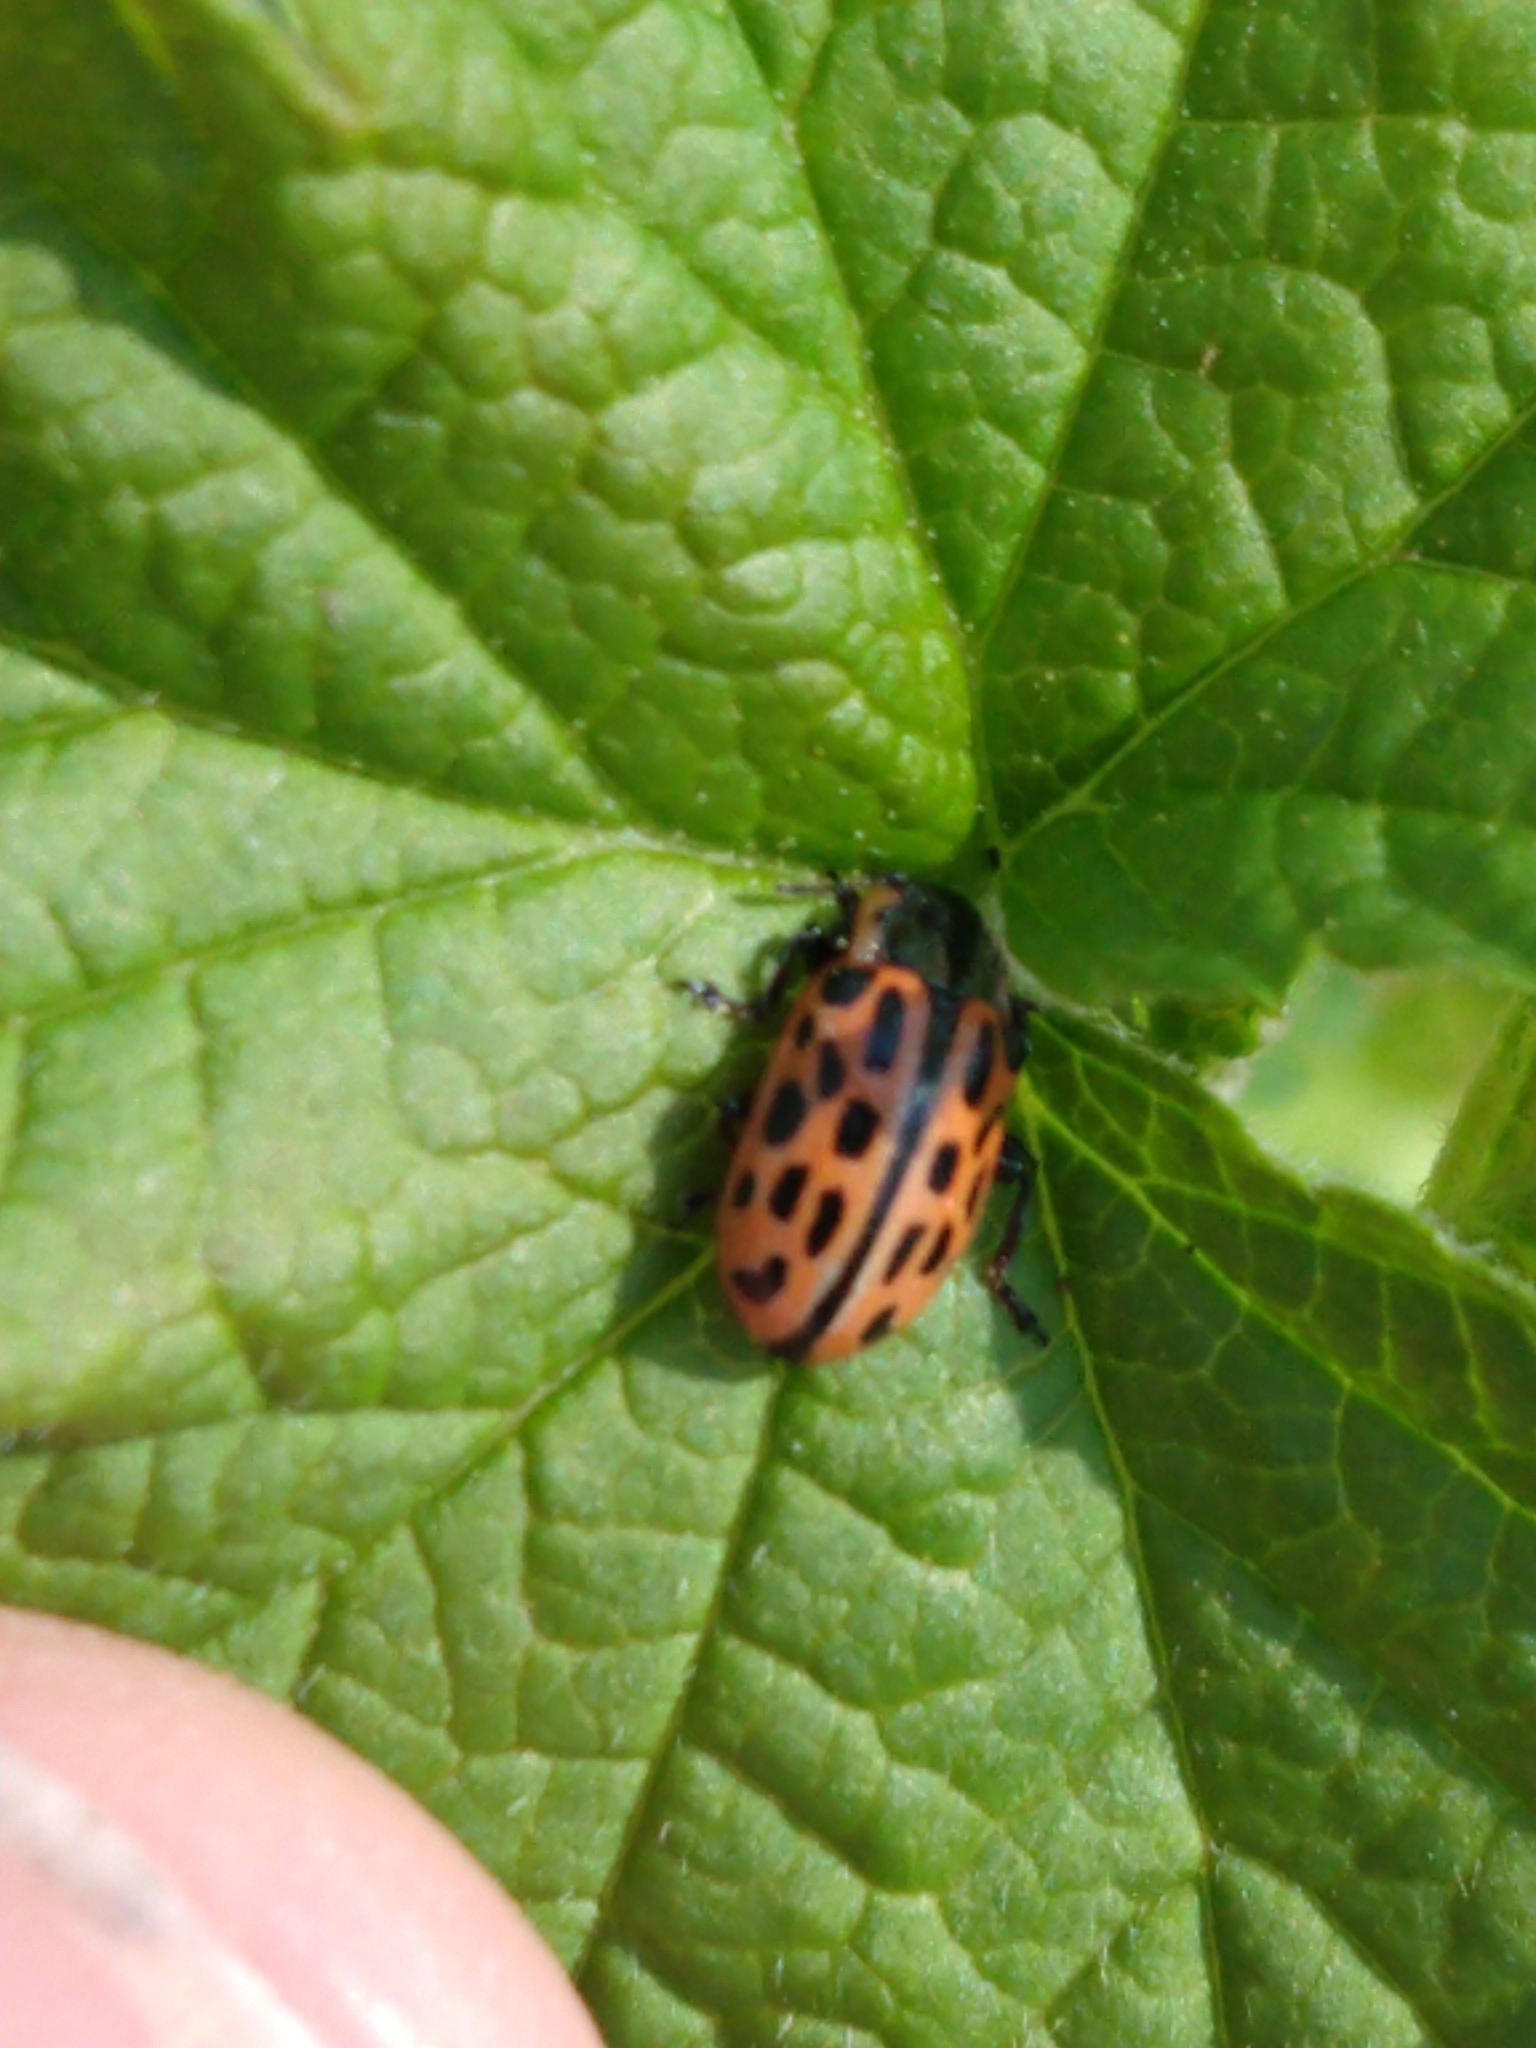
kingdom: Animalia
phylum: Arthropoda
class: Insecta
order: Coleoptera
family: Chrysomelidae
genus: Chrysomela
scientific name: Chrysomela vigintipunctata
